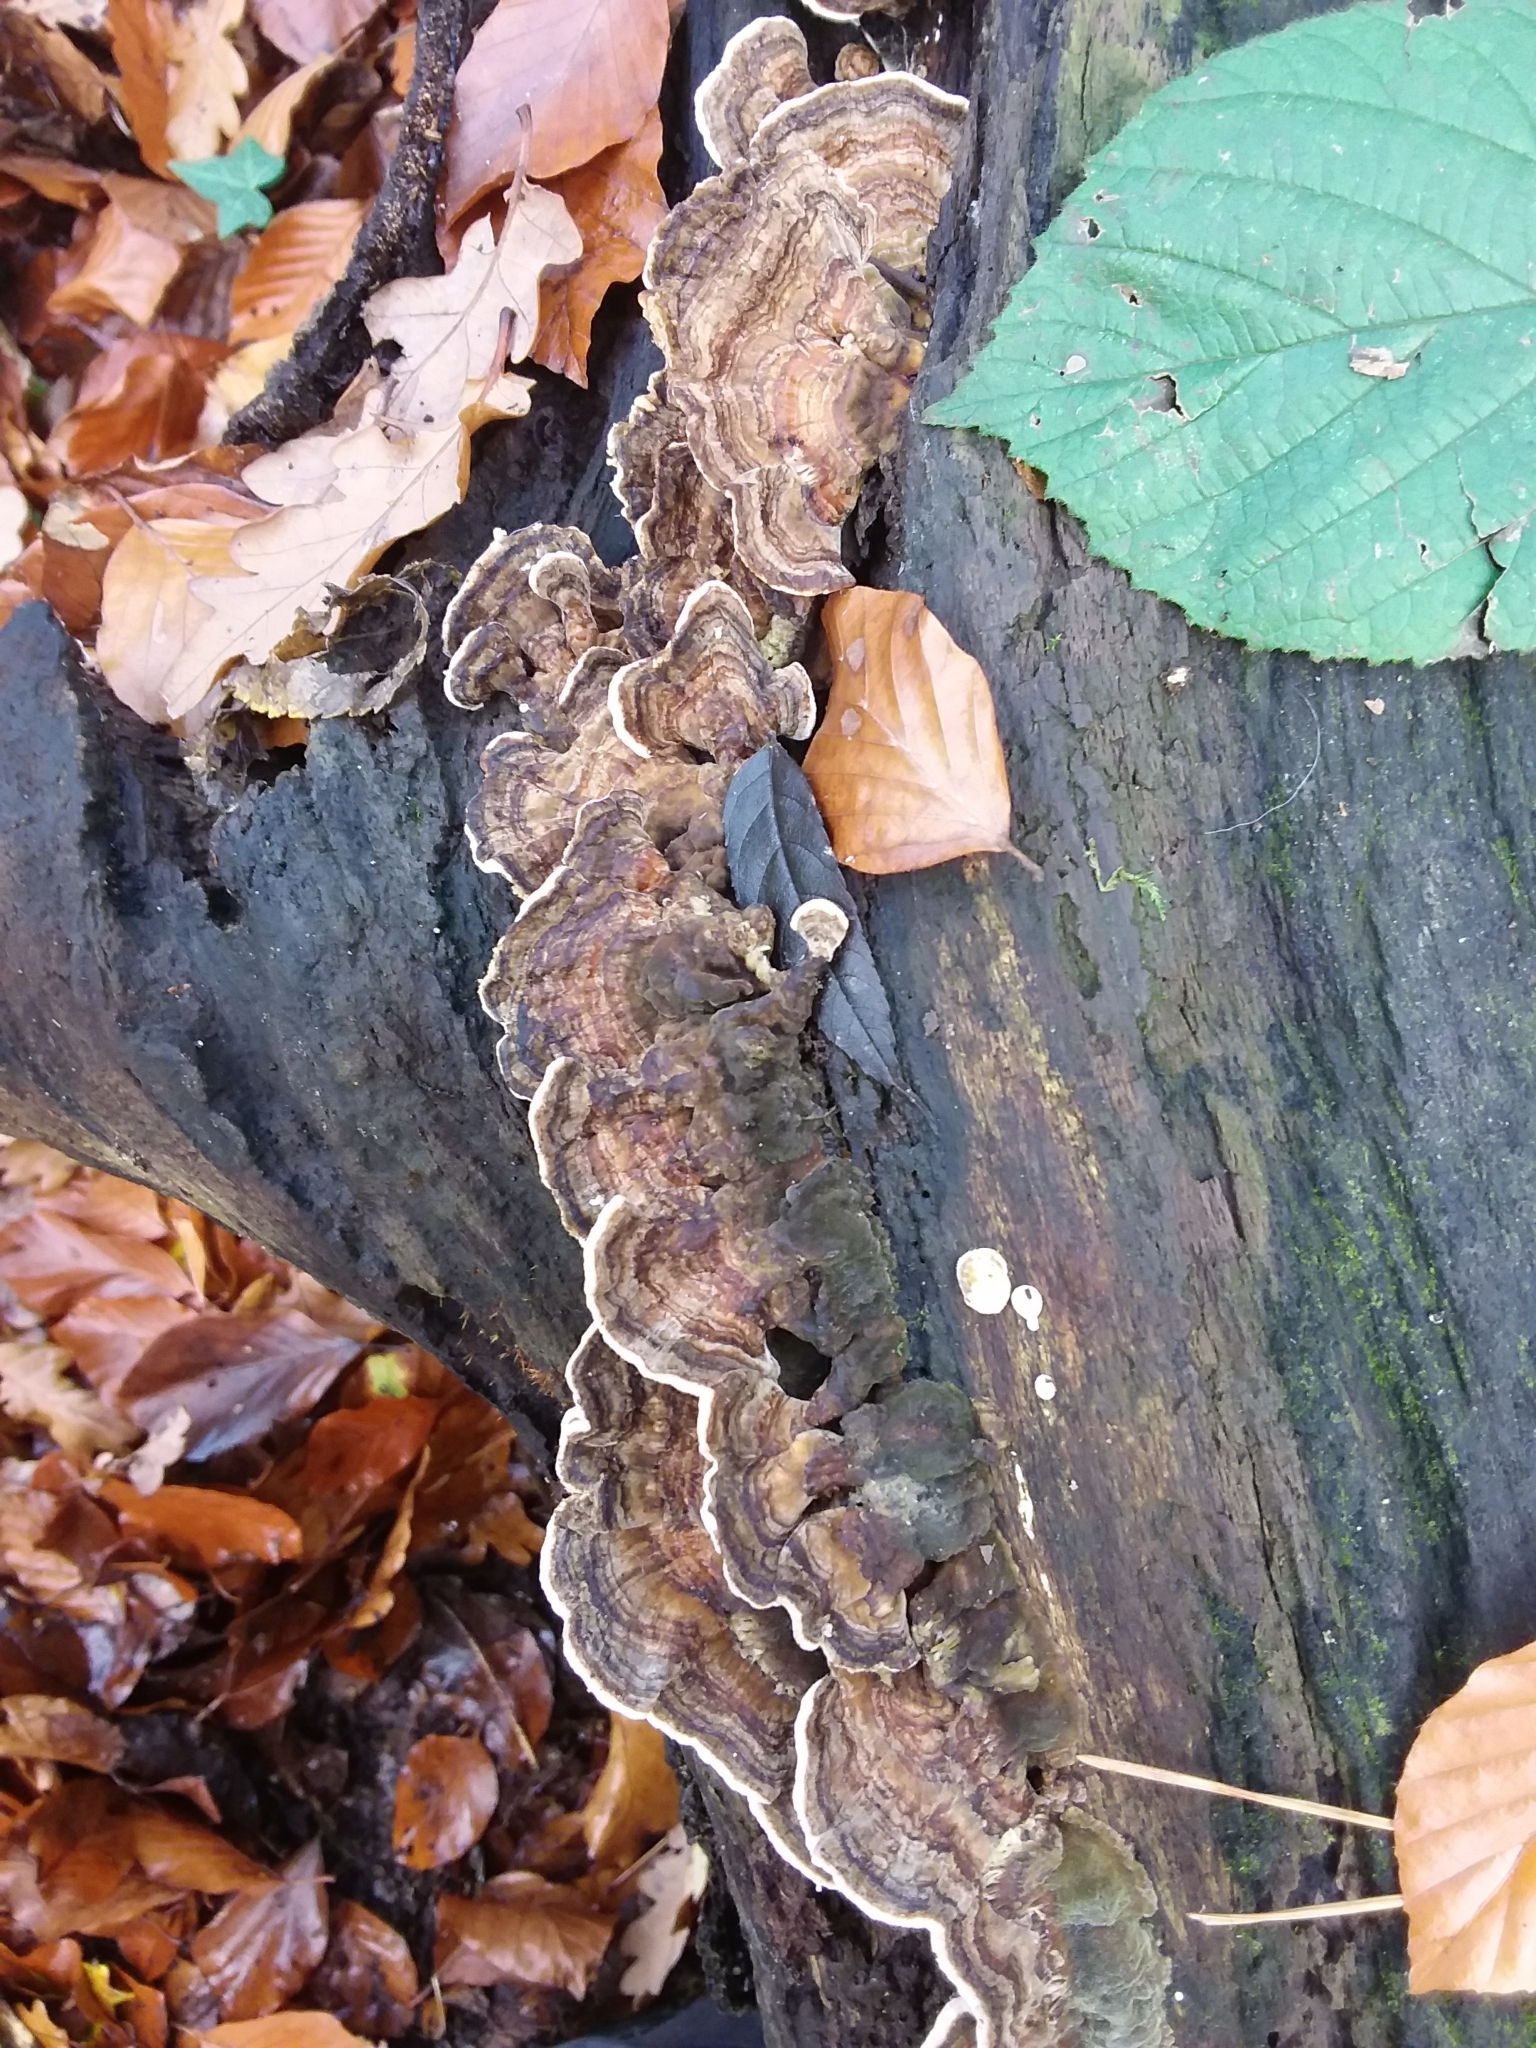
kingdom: Fungi
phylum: Basidiomycota
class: Agaricomycetes
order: Polyporales
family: Polyporaceae
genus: Trametes
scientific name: Trametes versicolor
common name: Turkeytail
